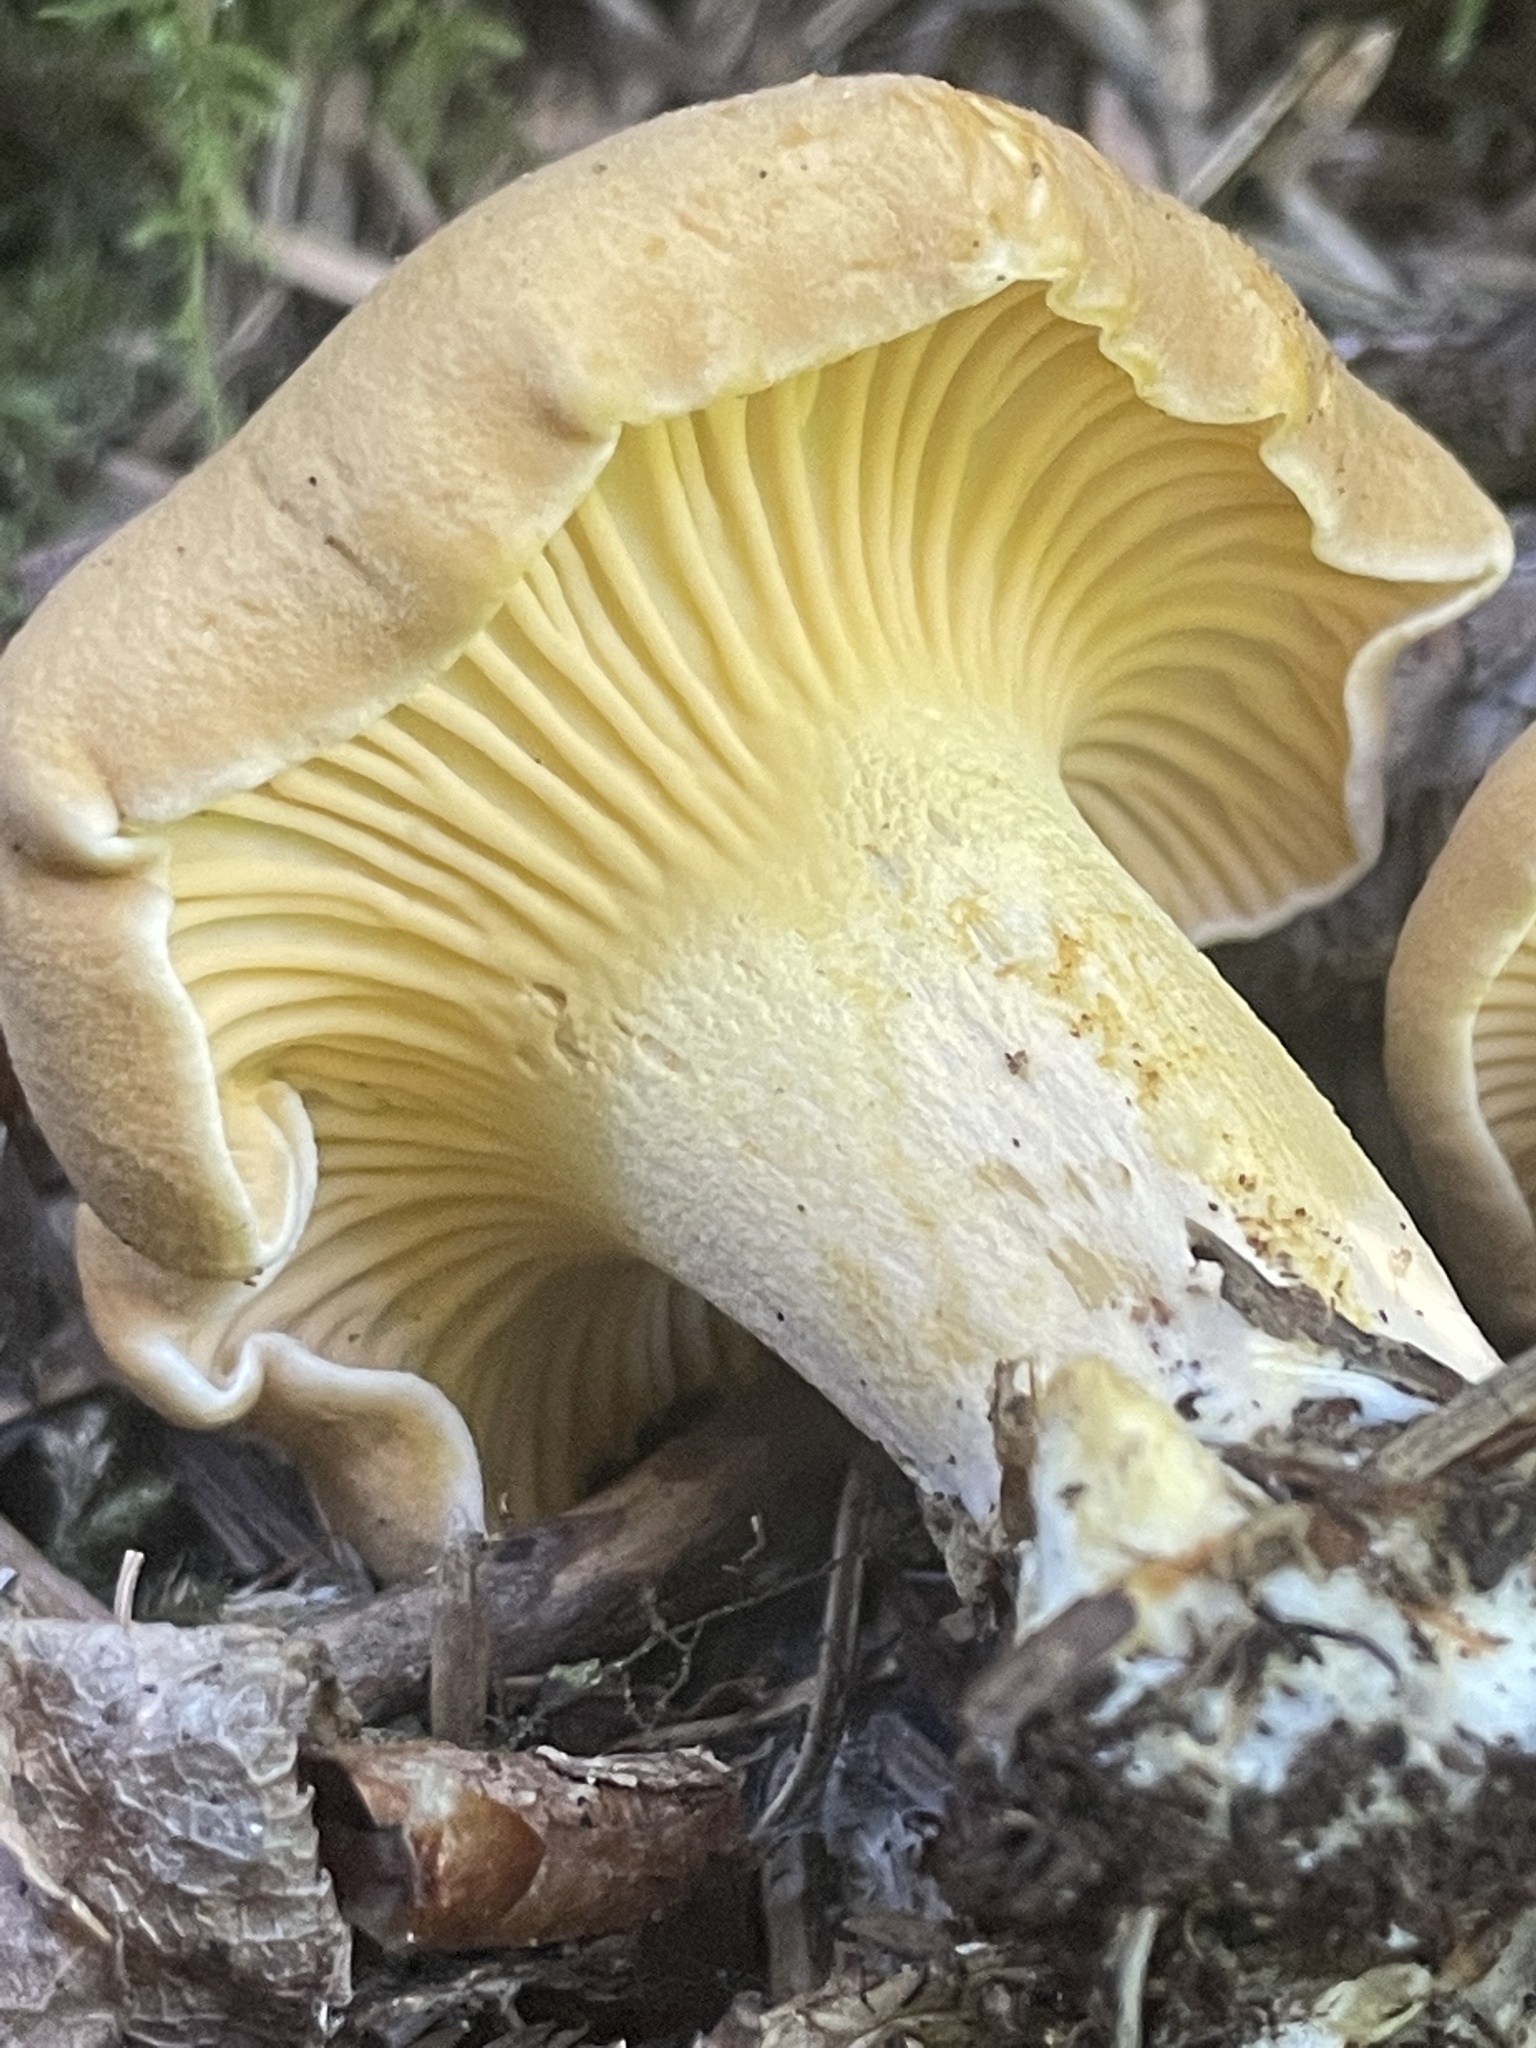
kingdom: Fungi
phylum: Basidiomycota
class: Agaricomycetes
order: Cantharellales
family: Hydnaceae
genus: Cantharellus
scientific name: Cantharellus roseocanus
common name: Rainbow chanterelle
